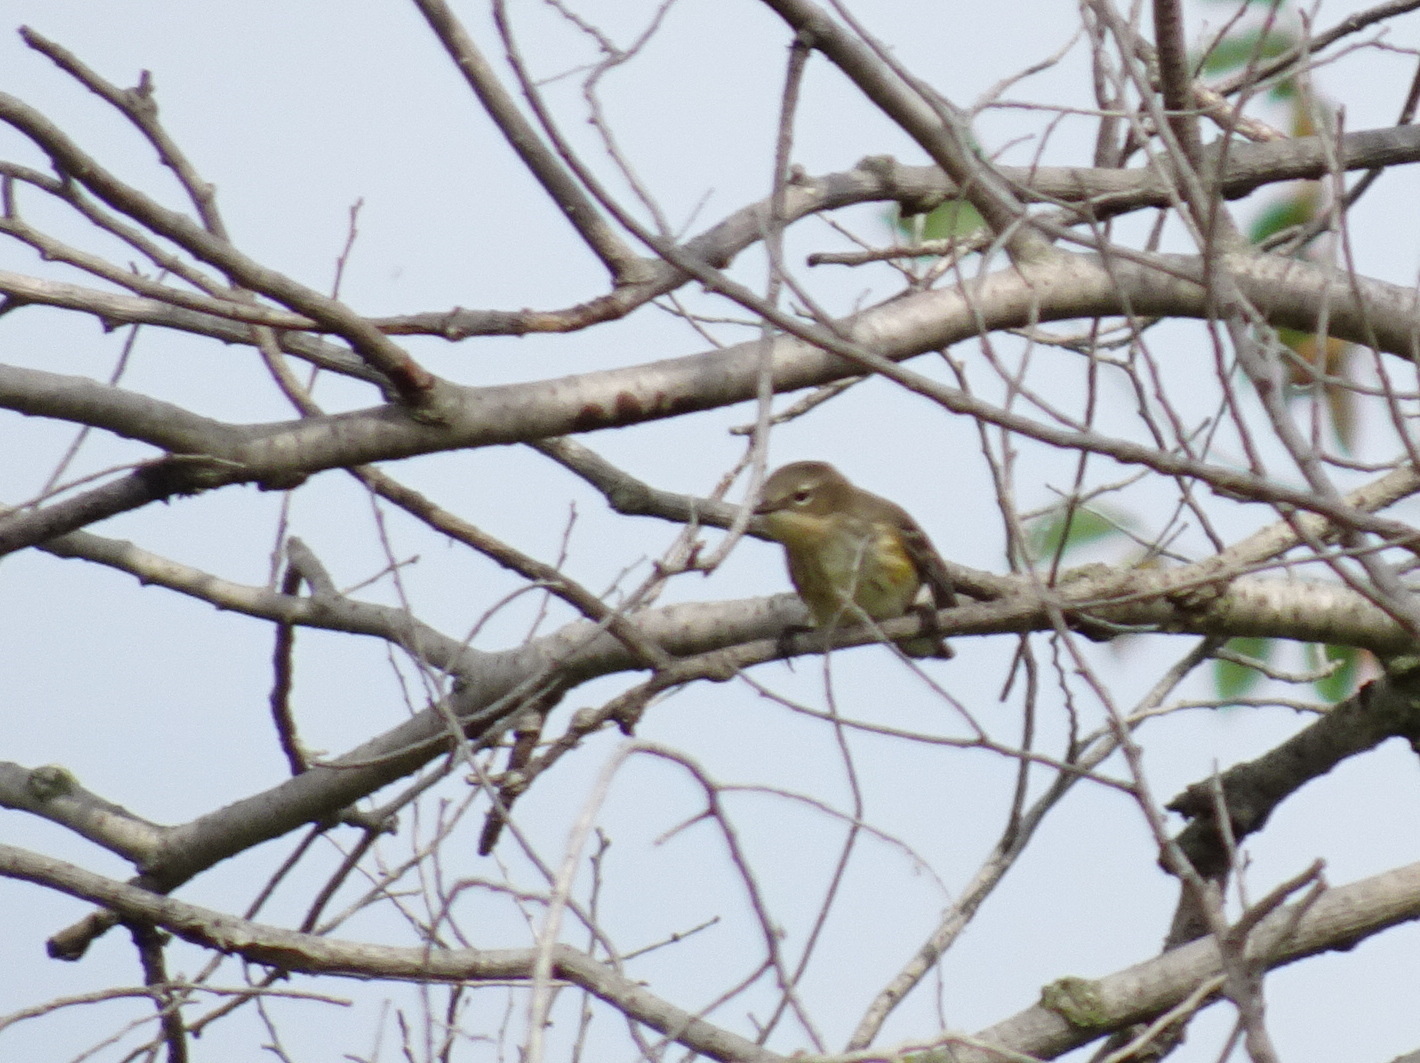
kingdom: Animalia
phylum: Chordata
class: Aves
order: Passeriformes
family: Parulidae
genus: Setophaga
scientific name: Setophaga coronata
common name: Myrtle warbler
